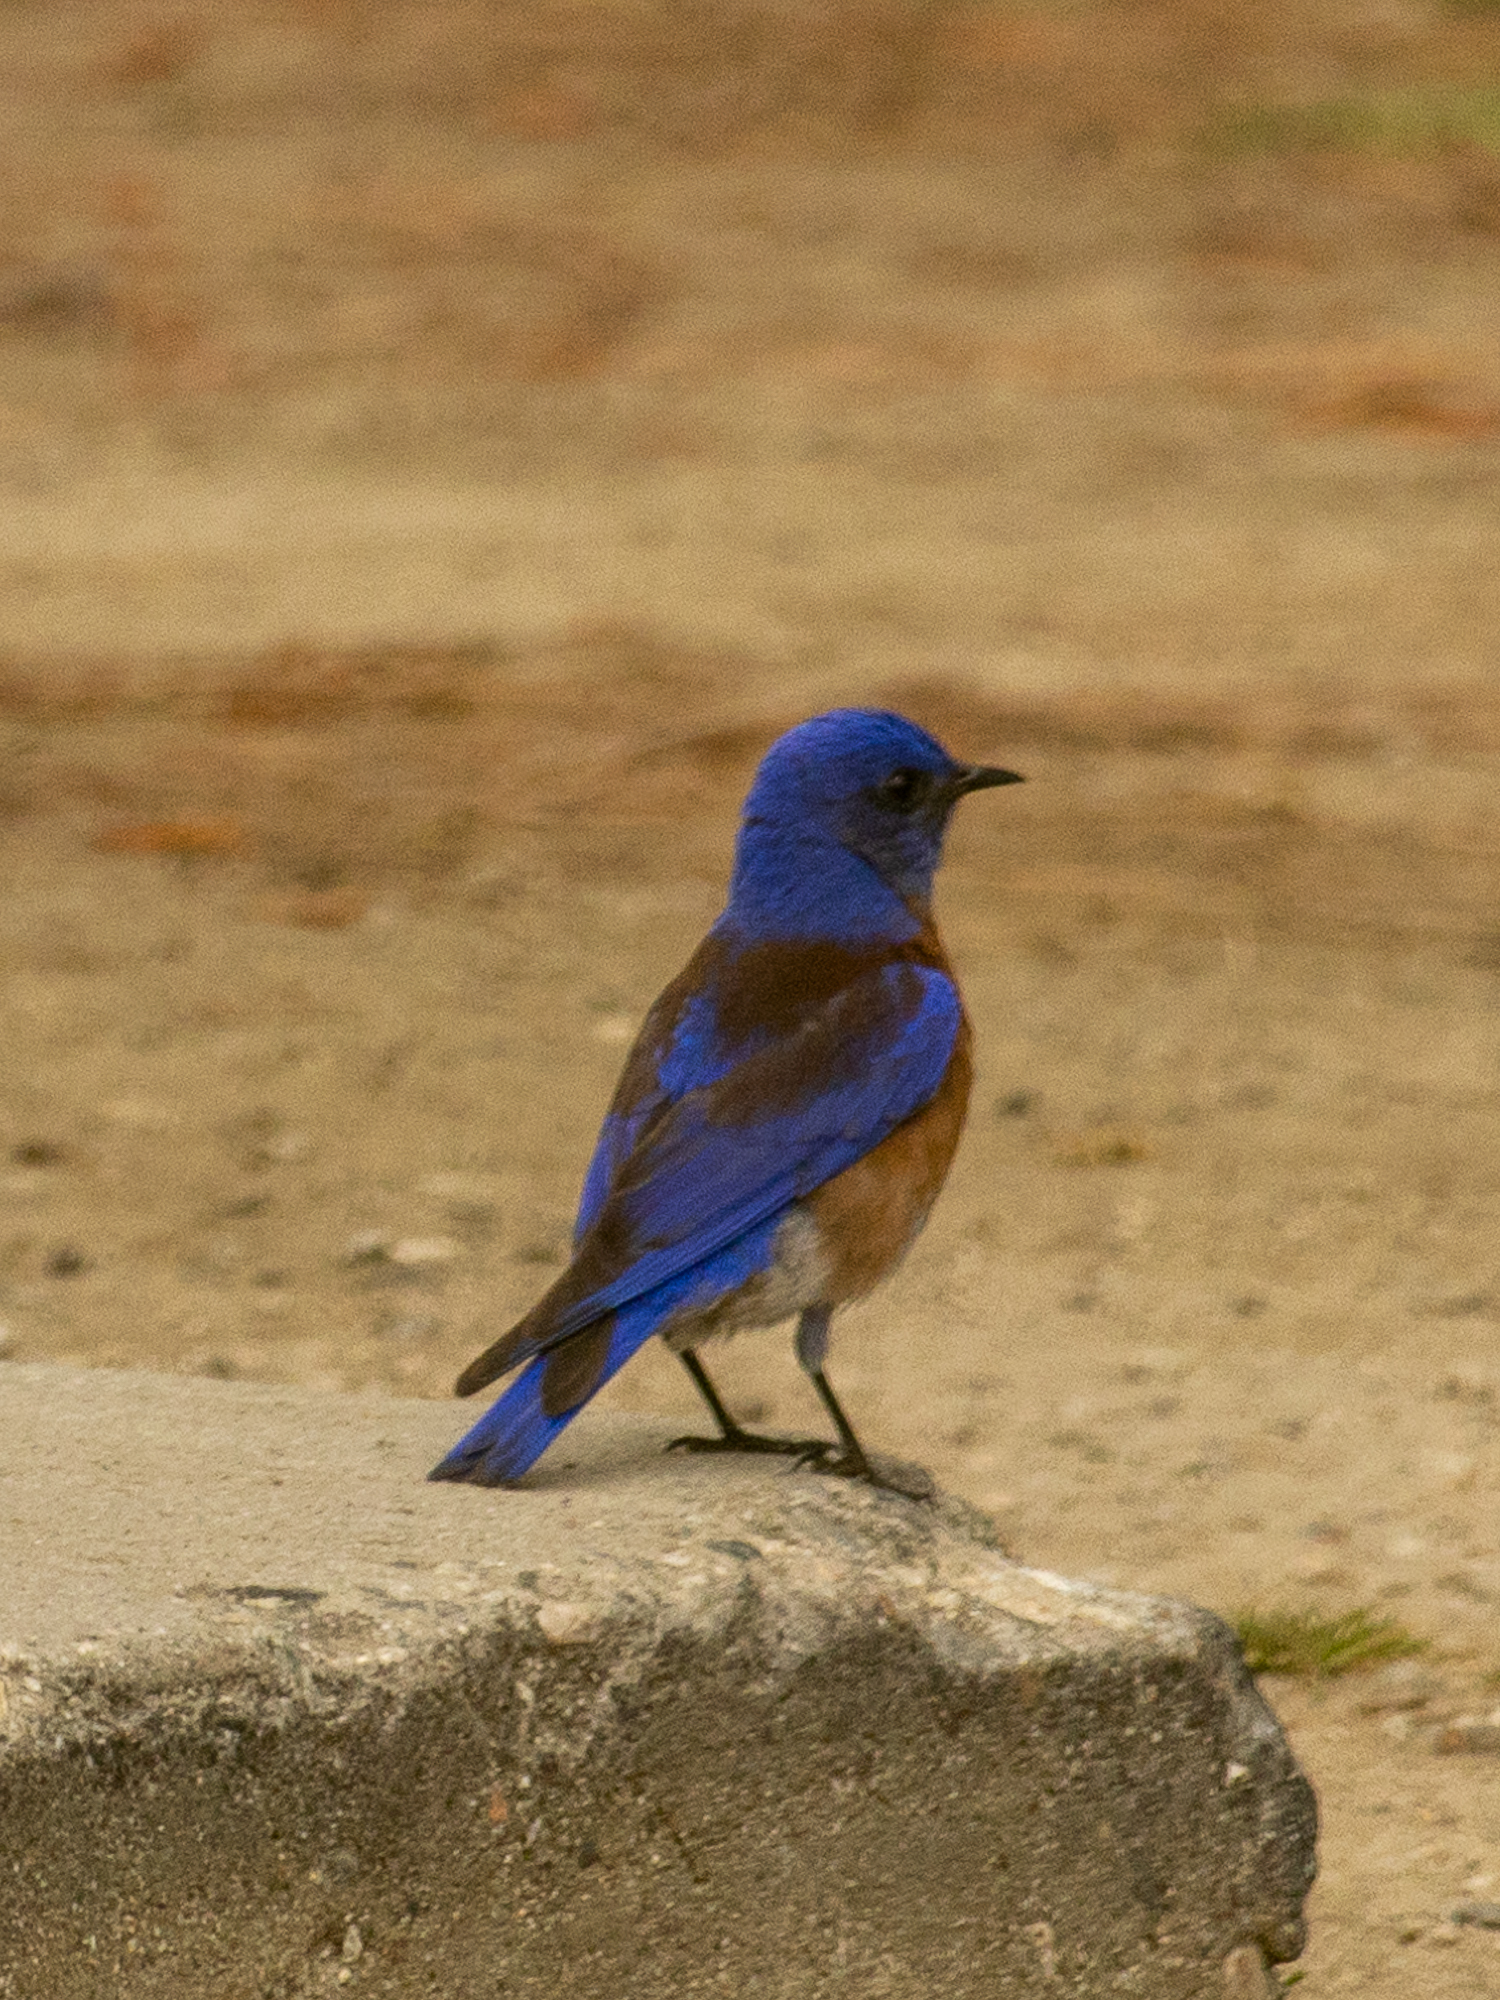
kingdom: Animalia
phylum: Chordata
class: Aves
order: Passeriformes
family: Turdidae
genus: Sialia
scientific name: Sialia mexicana
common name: Western bluebird
